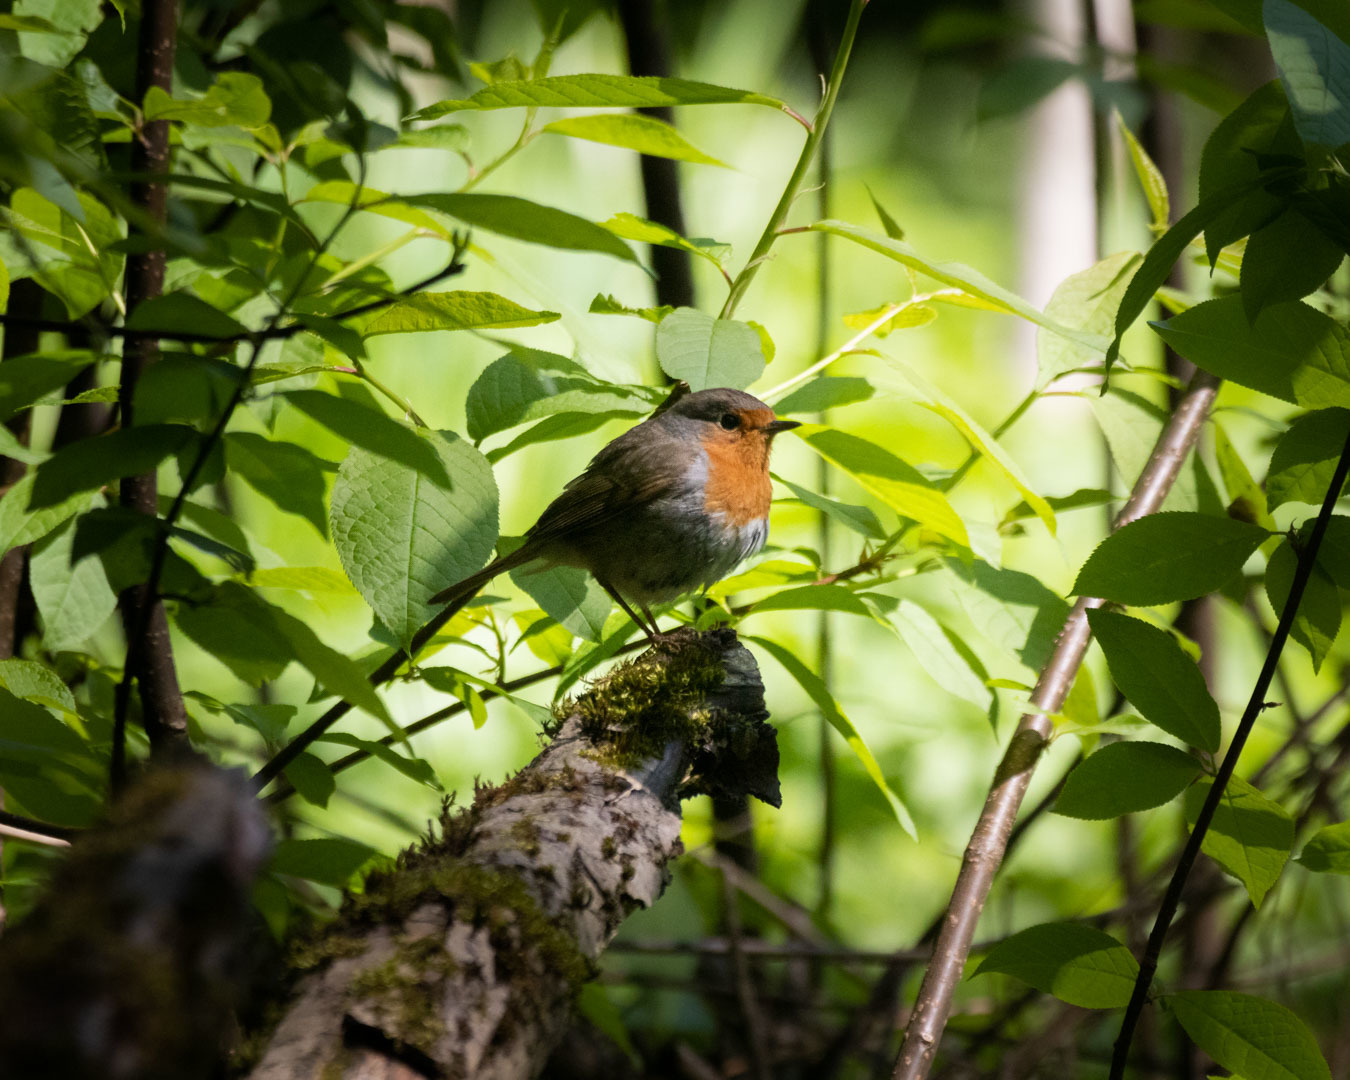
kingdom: Animalia
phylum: Chordata
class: Aves
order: Passeriformes
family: Muscicapidae
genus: Erithacus
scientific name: Erithacus rubecula
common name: European robin
